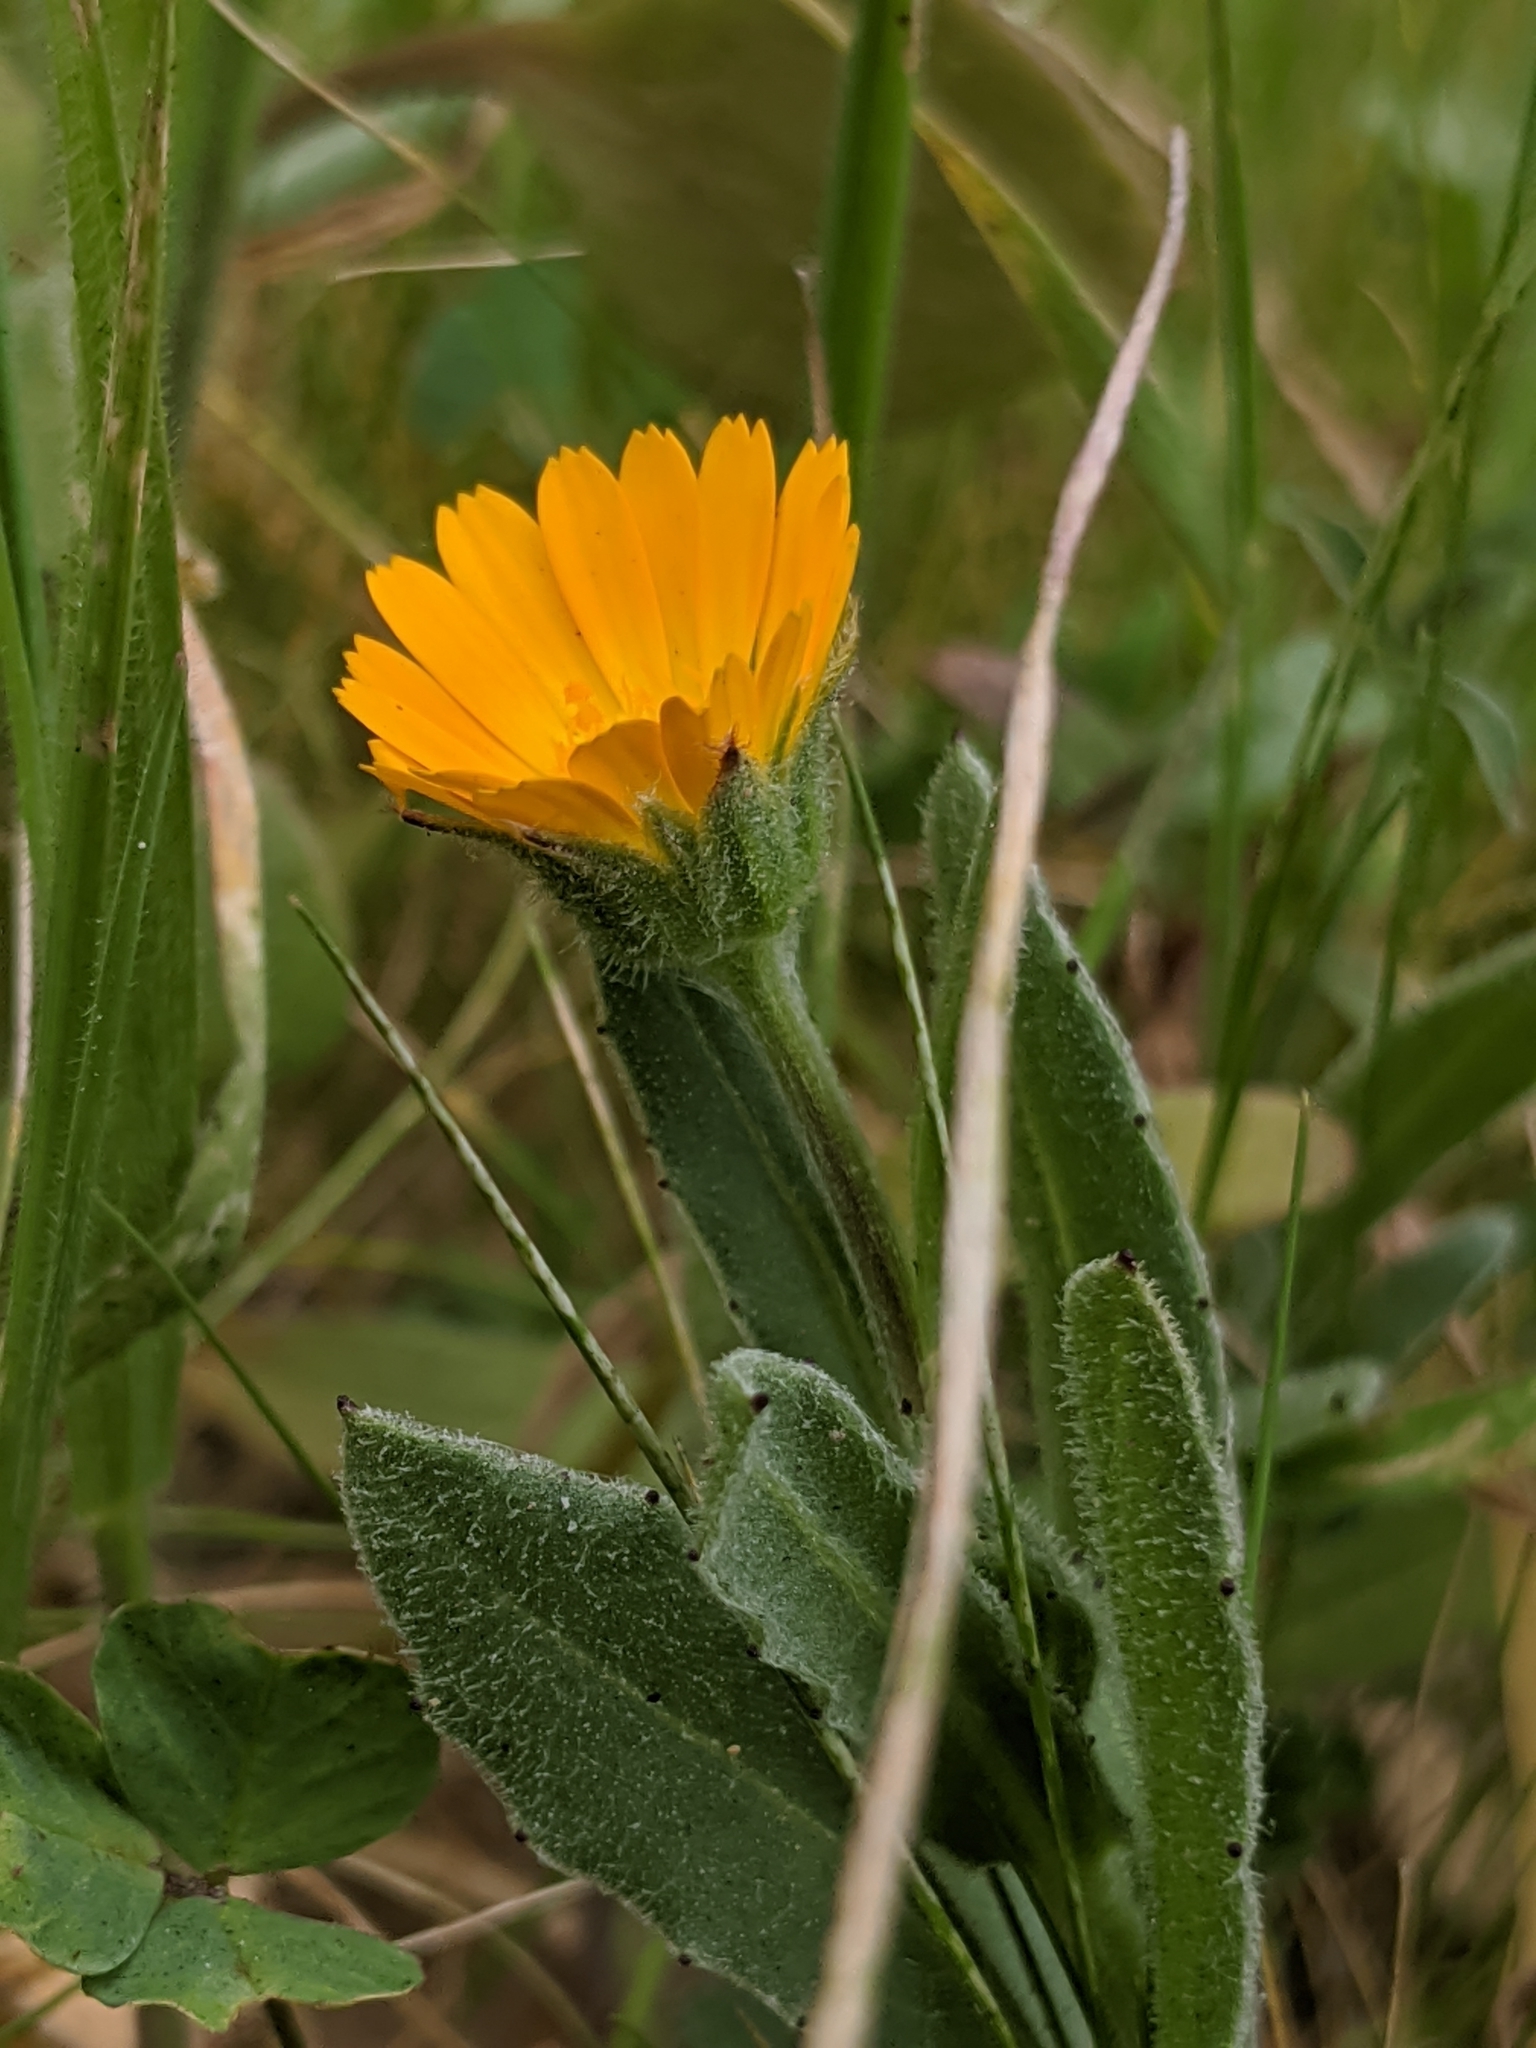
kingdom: Plantae
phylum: Tracheophyta
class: Magnoliopsida
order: Asterales
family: Asteraceae
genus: Calendula
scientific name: Calendula arvensis
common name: Field marigold
